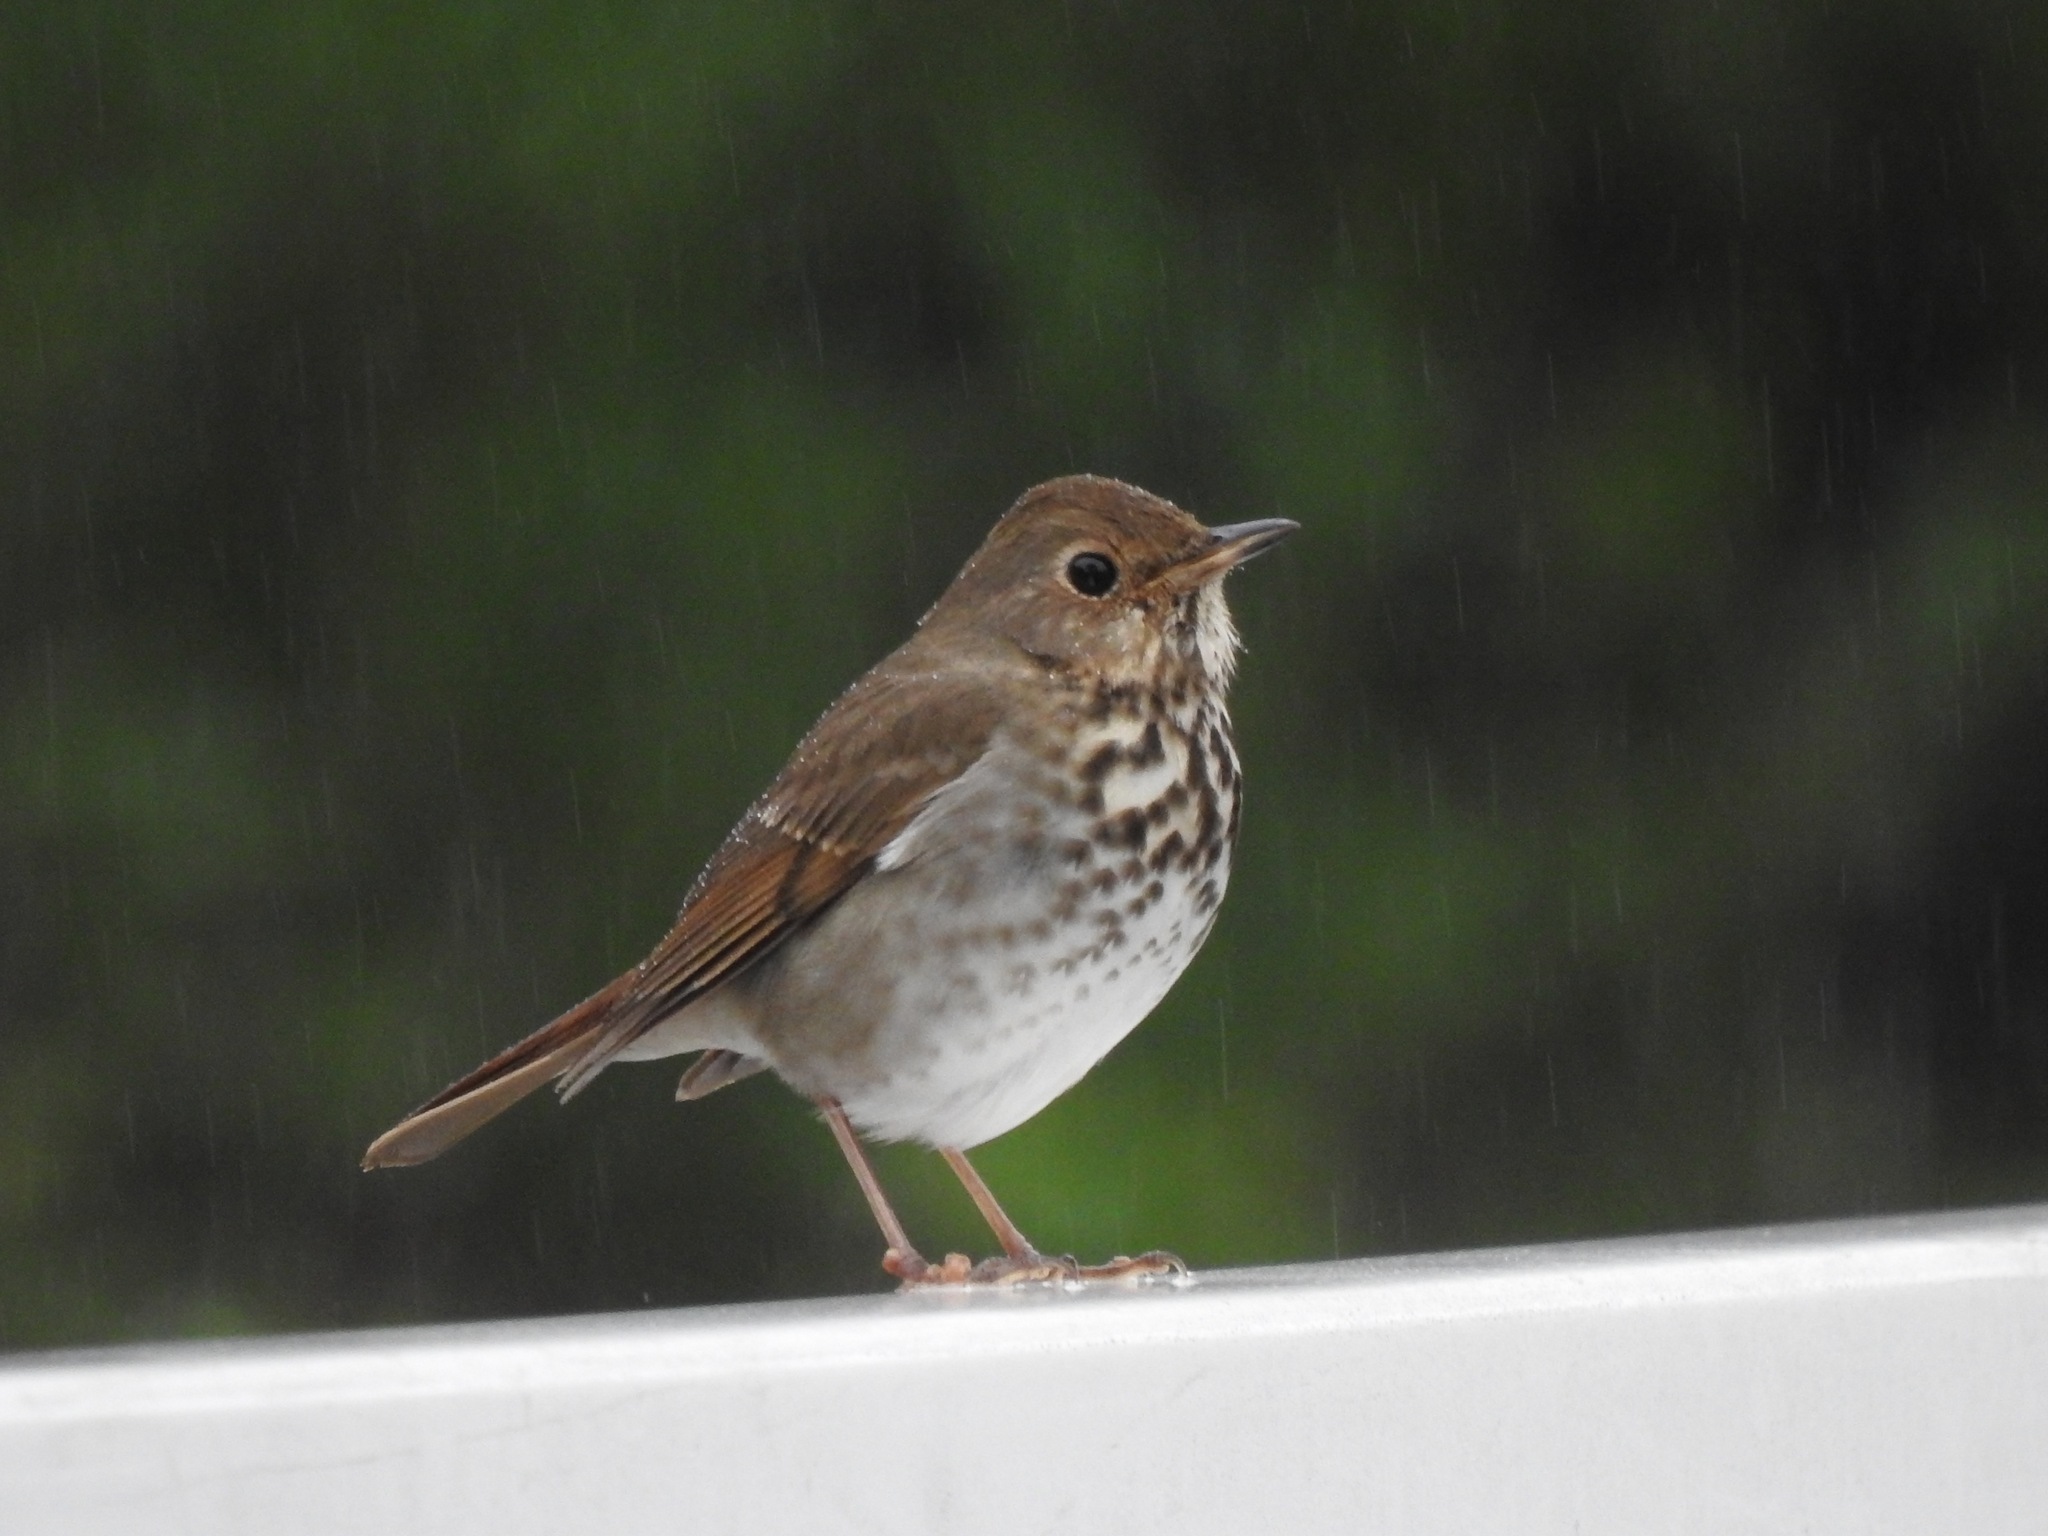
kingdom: Animalia
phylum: Chordata
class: Aves
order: Passeriformes
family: Turdidae
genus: Catharus
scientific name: Catharus guttatus
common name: Hermit thrush
